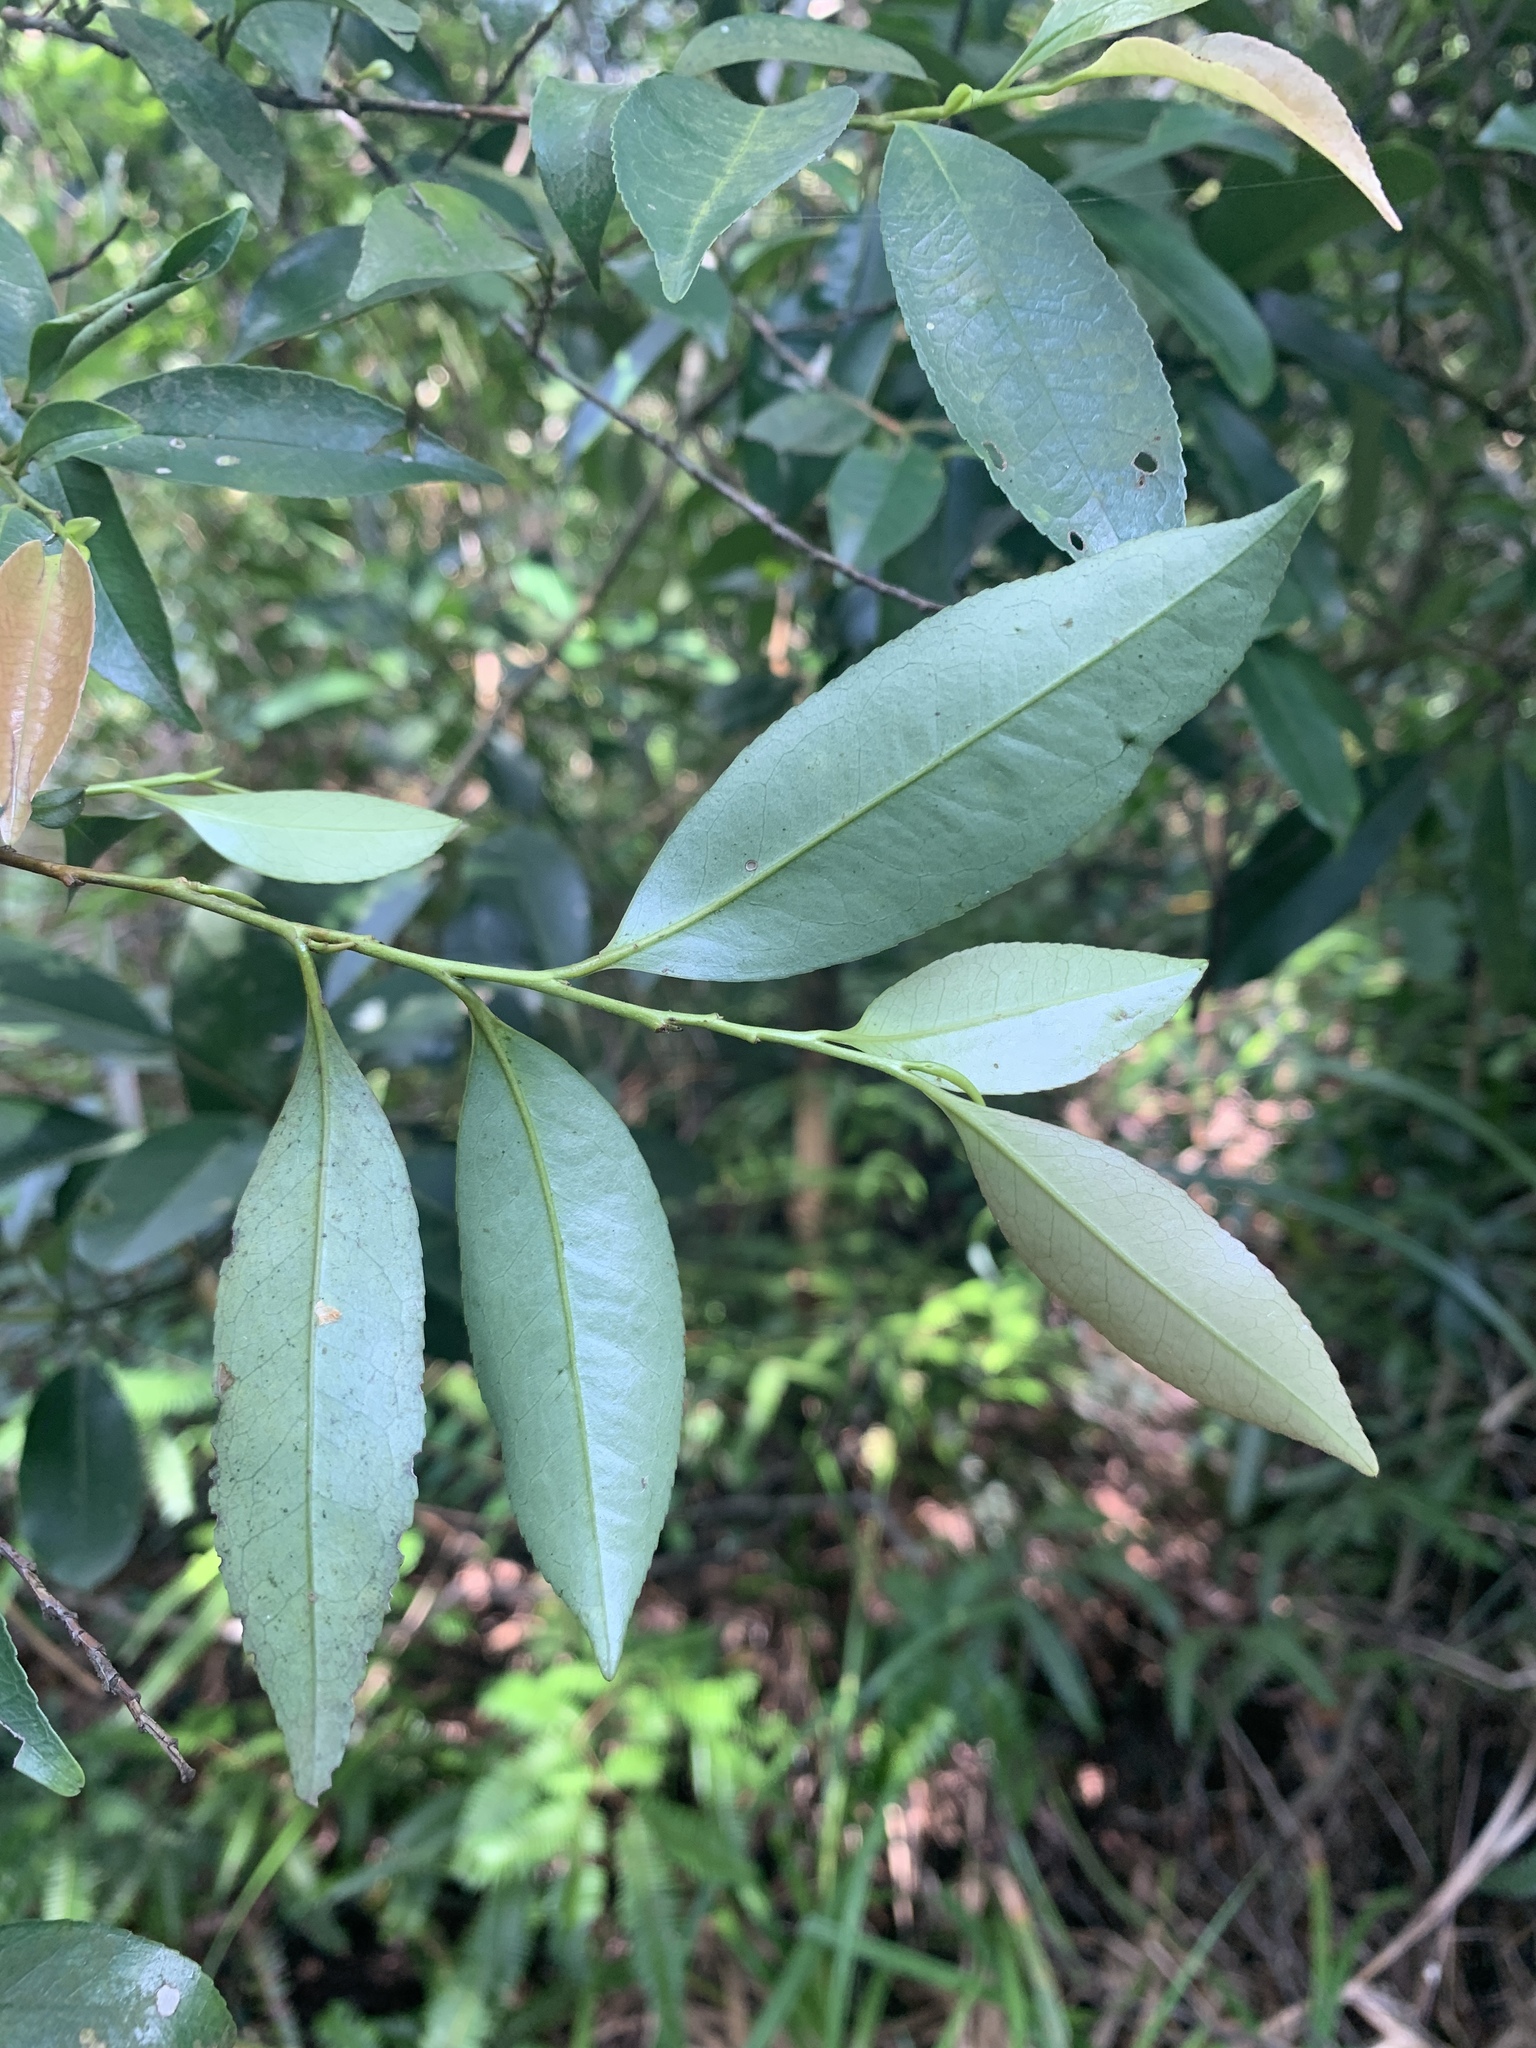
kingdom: Plantae
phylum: Tracheophyta
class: Magnoliopsida
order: Ericales
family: Pentaphylacaceae
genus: Eurya
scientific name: Eurya nitida
